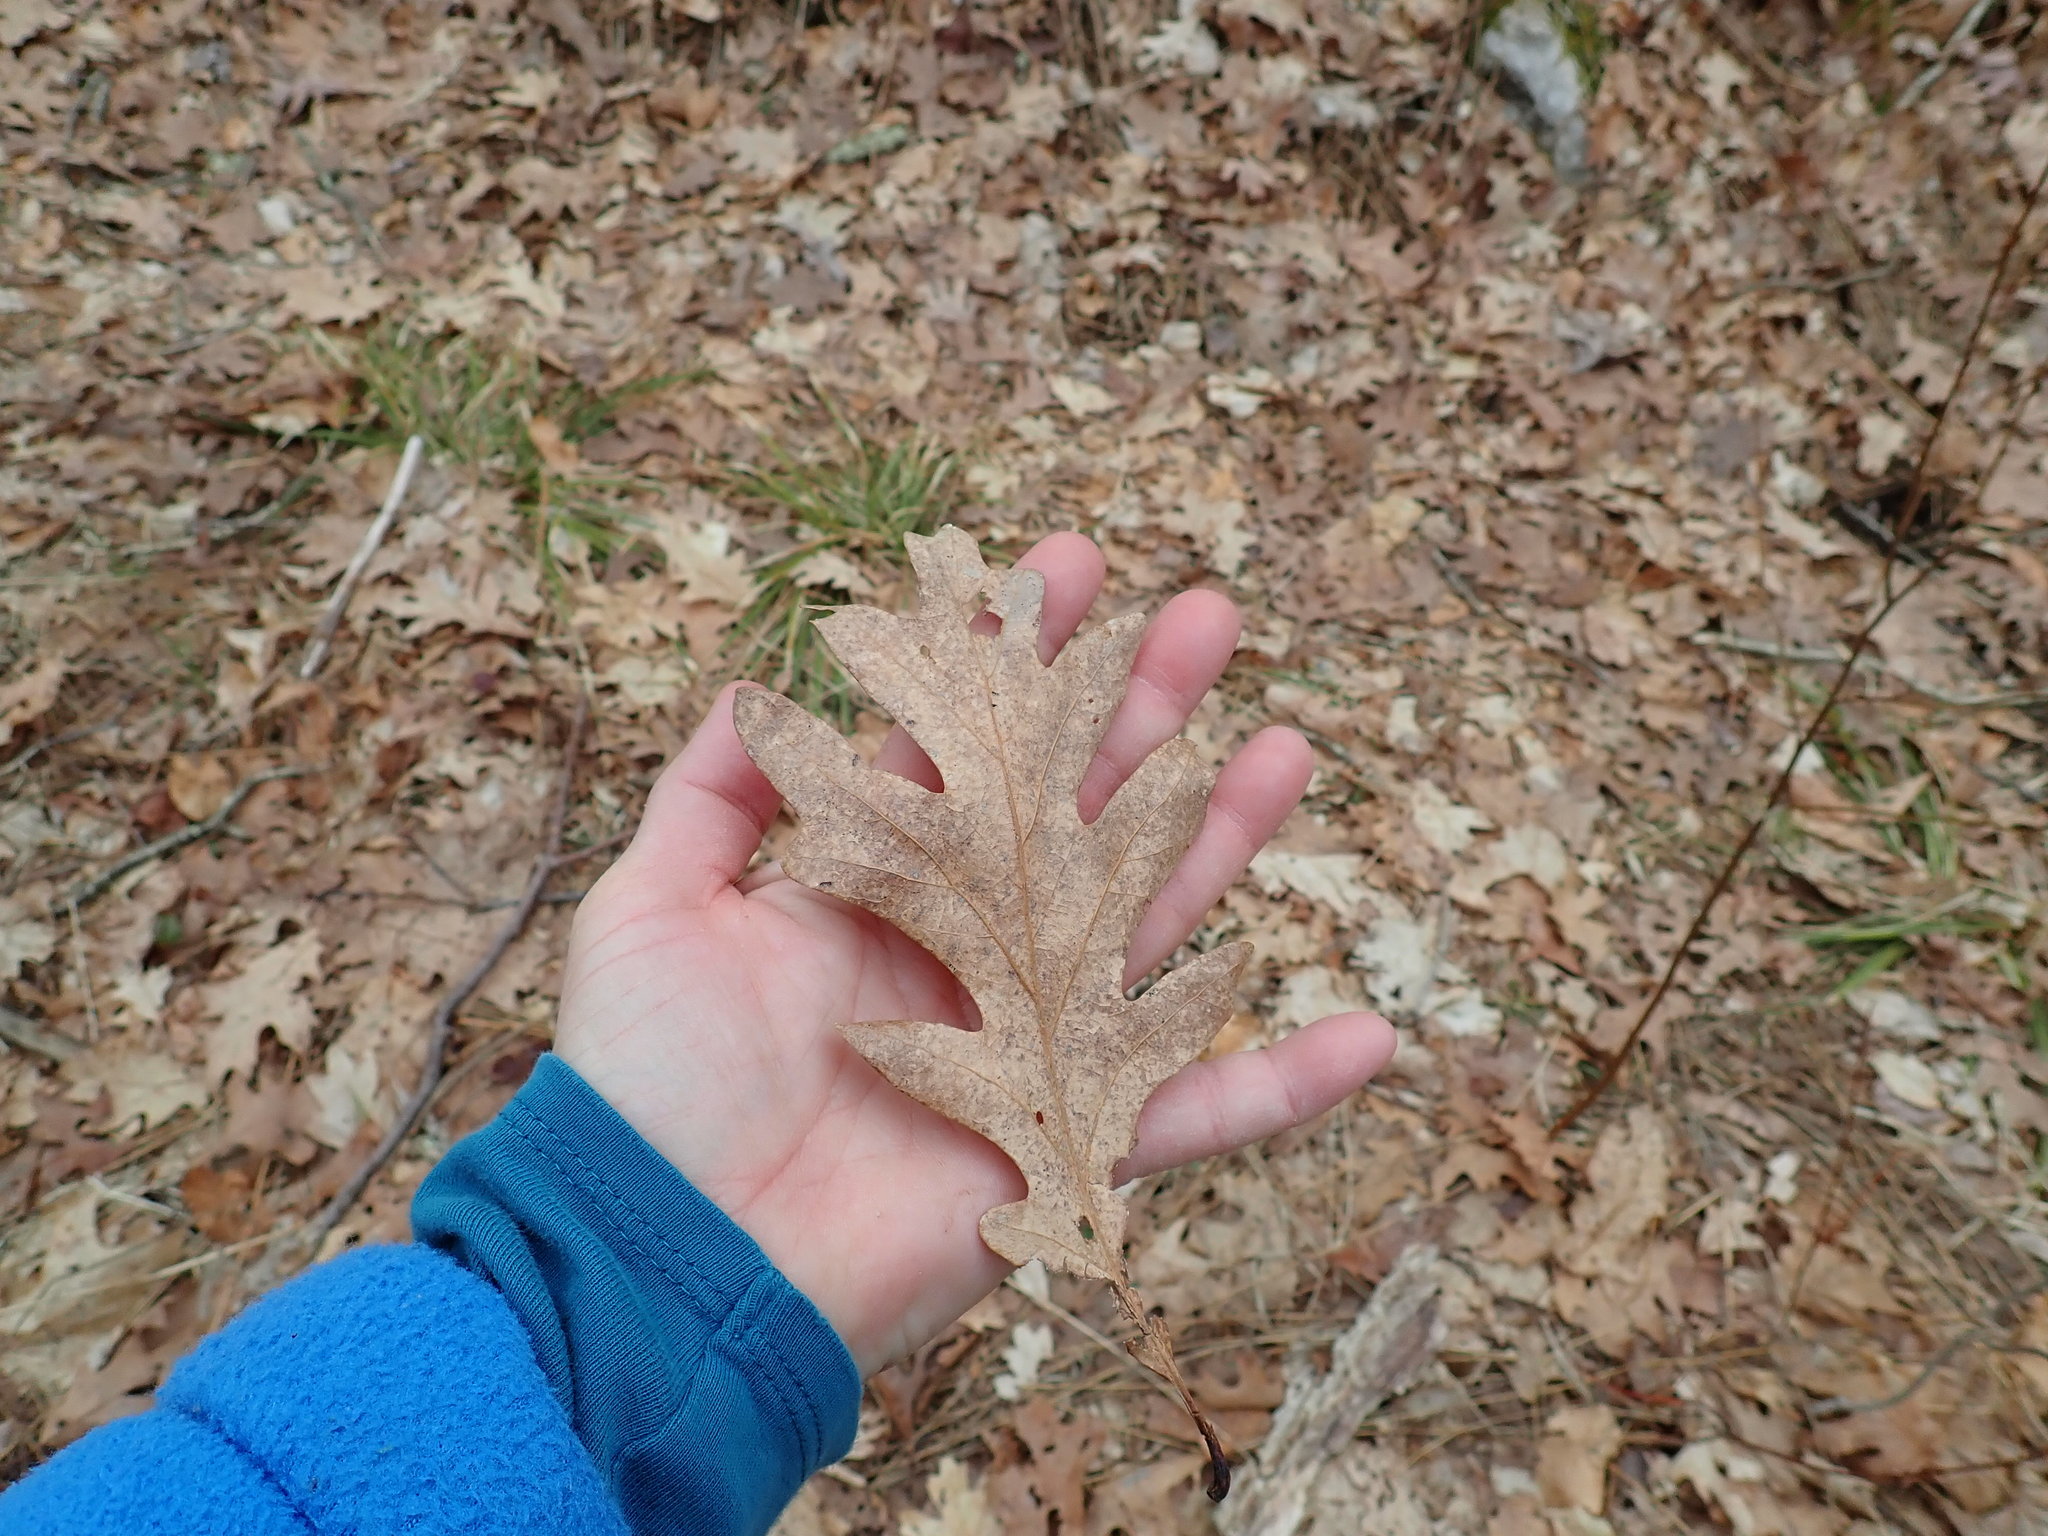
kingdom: Plantae
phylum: Tracheophyta
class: Magnoliopsida
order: Fagales
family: Fagaceae
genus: Quercus
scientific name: Quercus alba
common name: White oak
